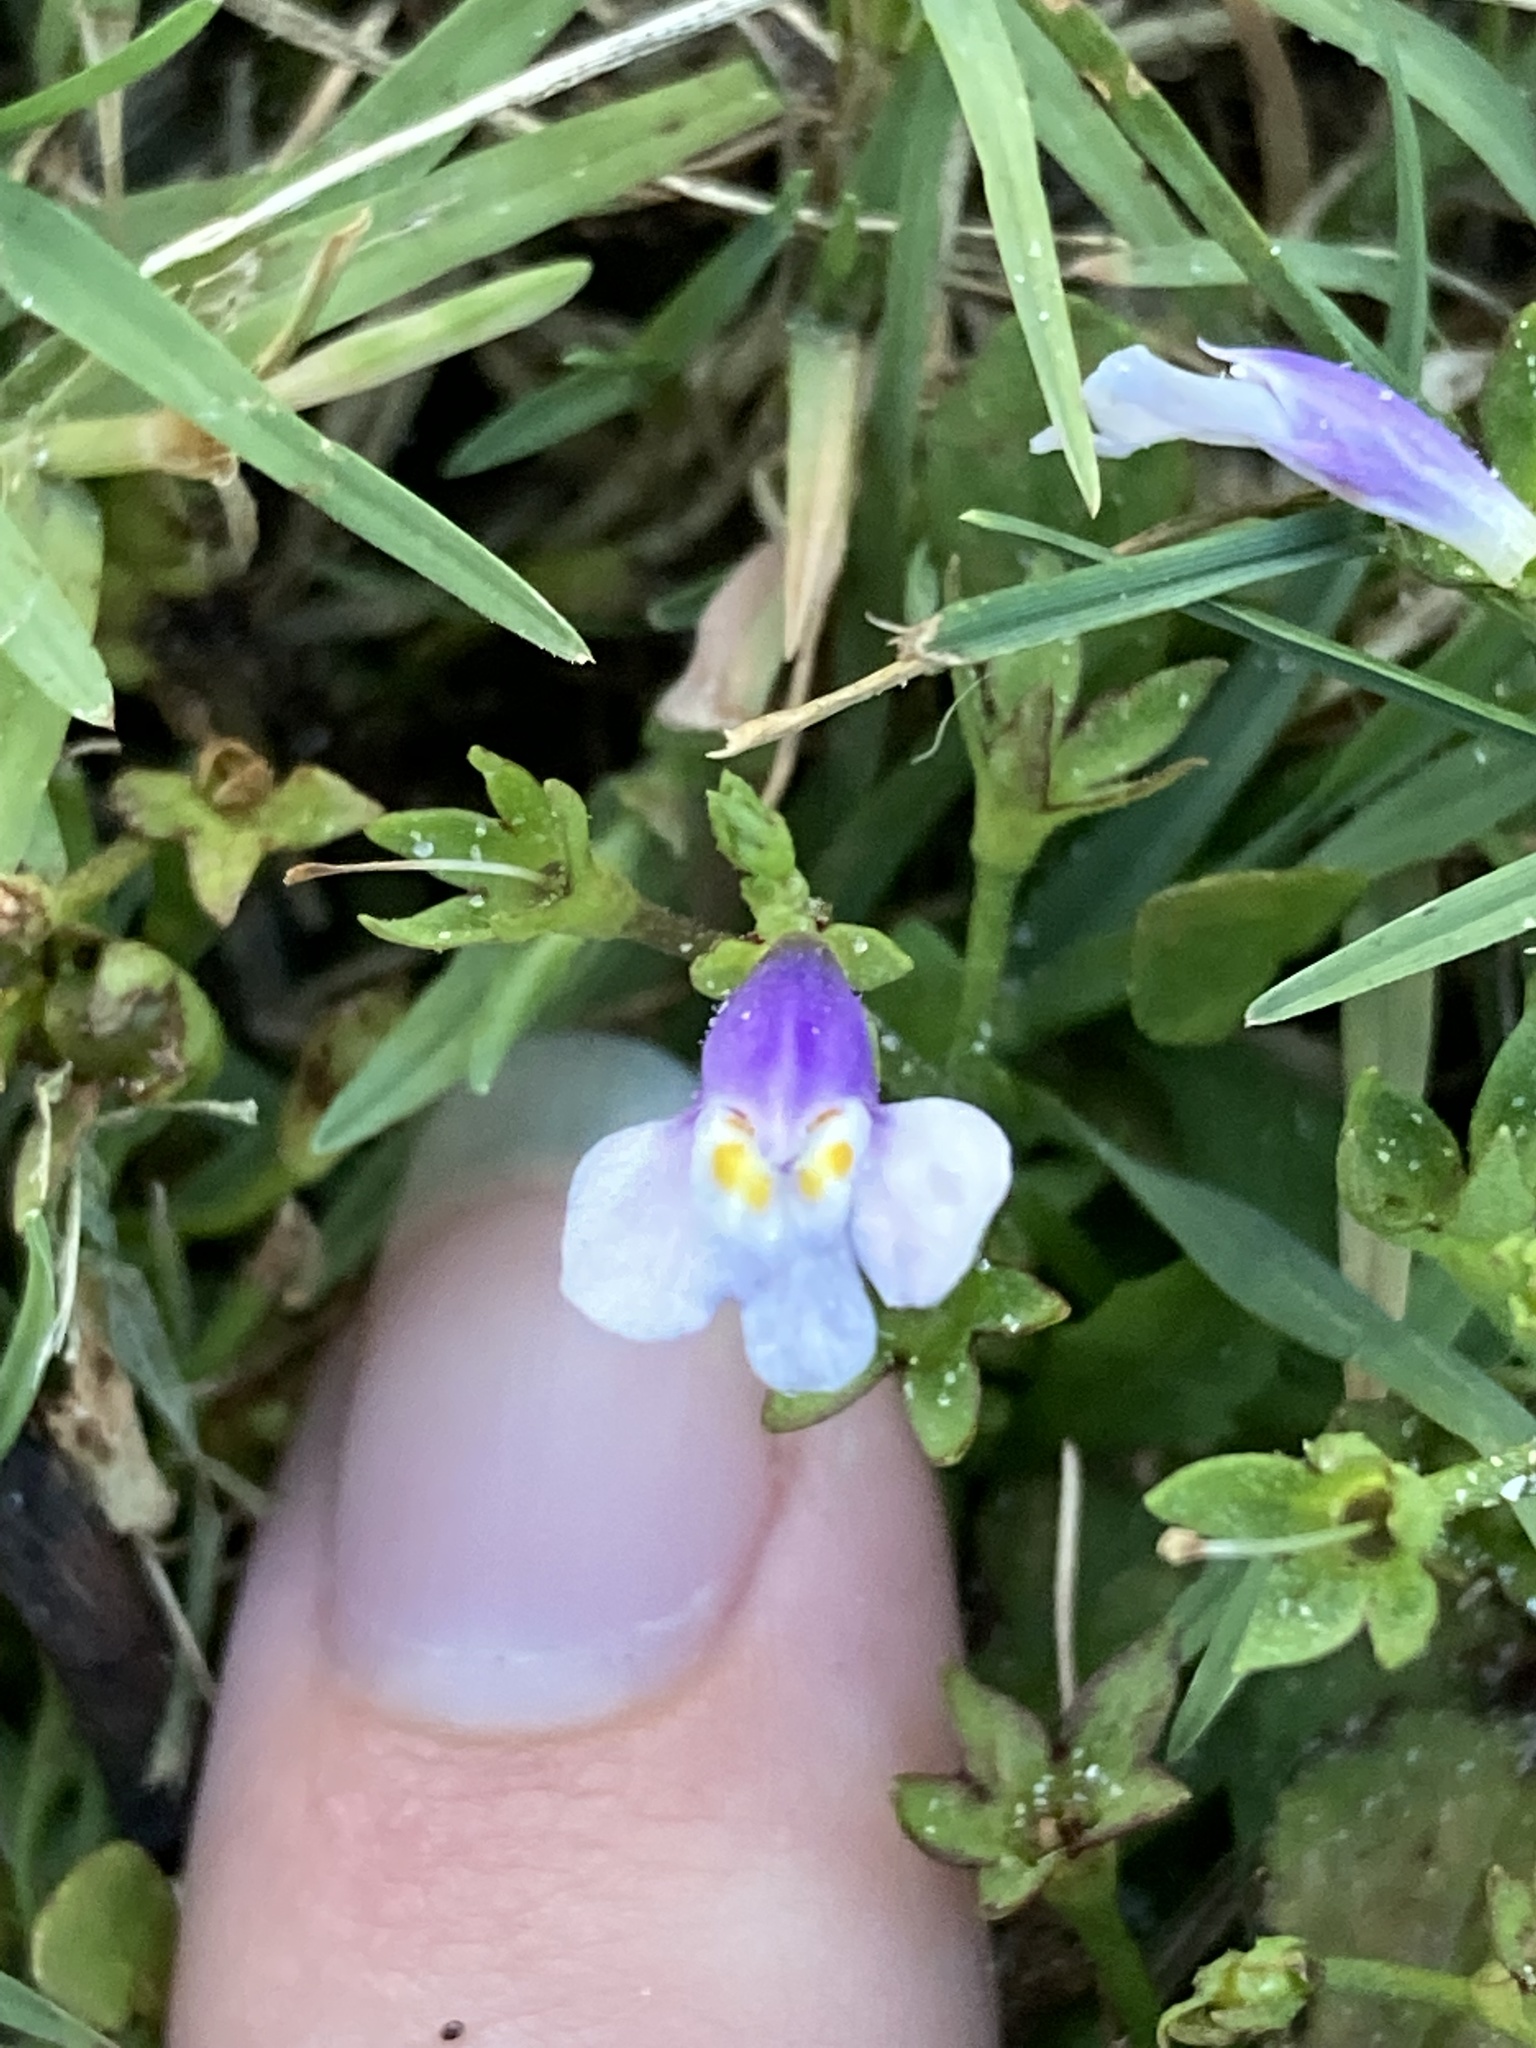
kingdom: Plantae
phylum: Tracheophyta
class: Magnoliopsida
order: Lamiales
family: Mazaceae
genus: Mazus
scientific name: Mazus pumilus
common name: Japanese mazus
